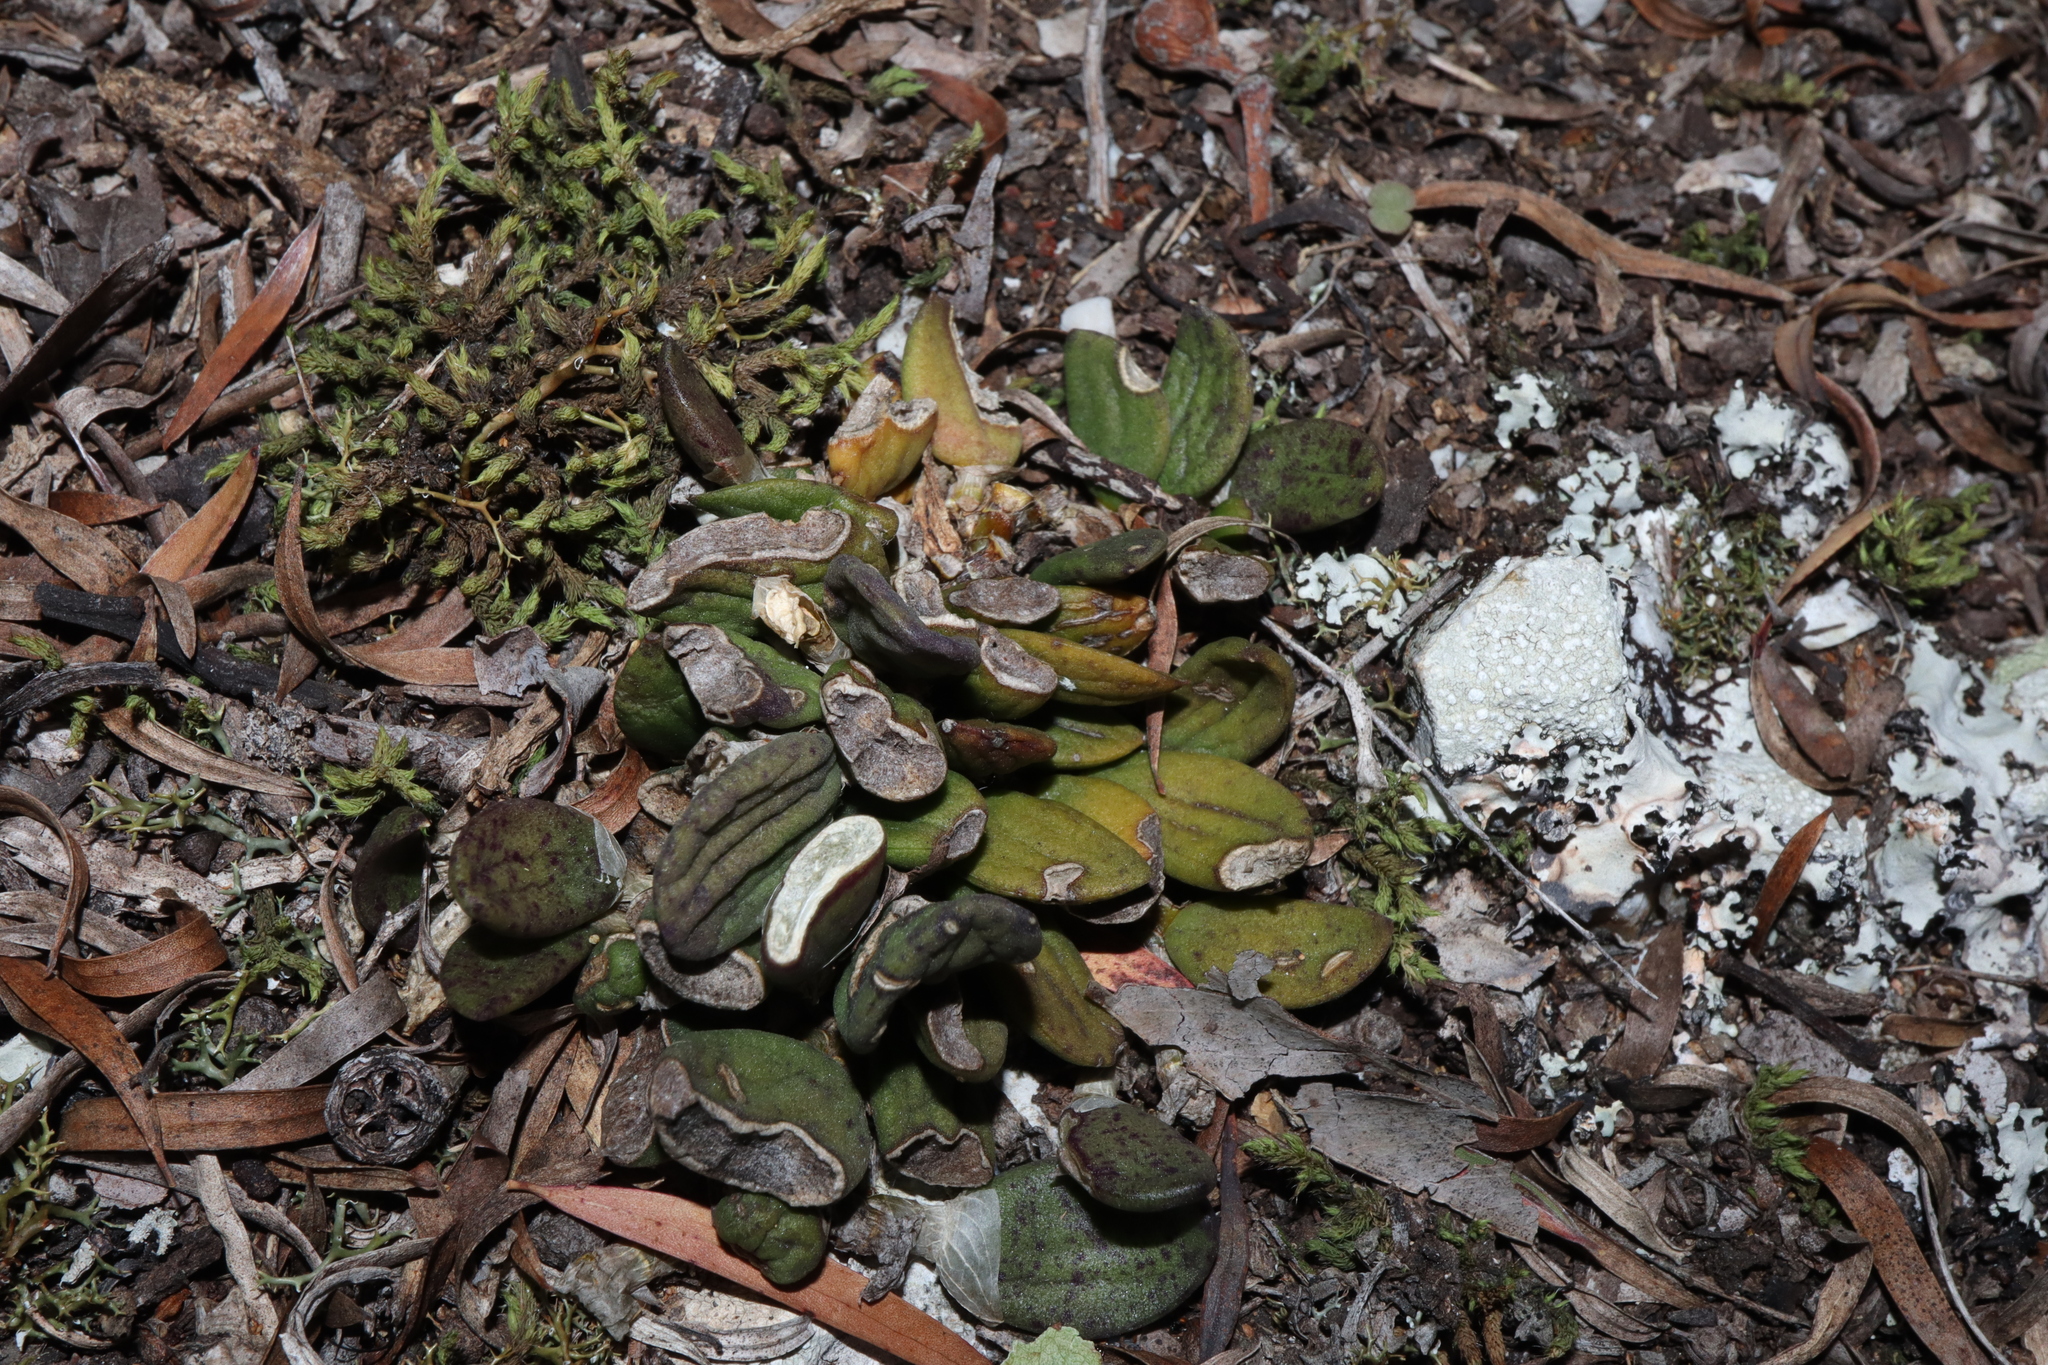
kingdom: Plantae
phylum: Tracheophyta
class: Liliopsida
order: Asparagales
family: Orchidaceae
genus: Dendrobium
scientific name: Dendrobium linguiforme
